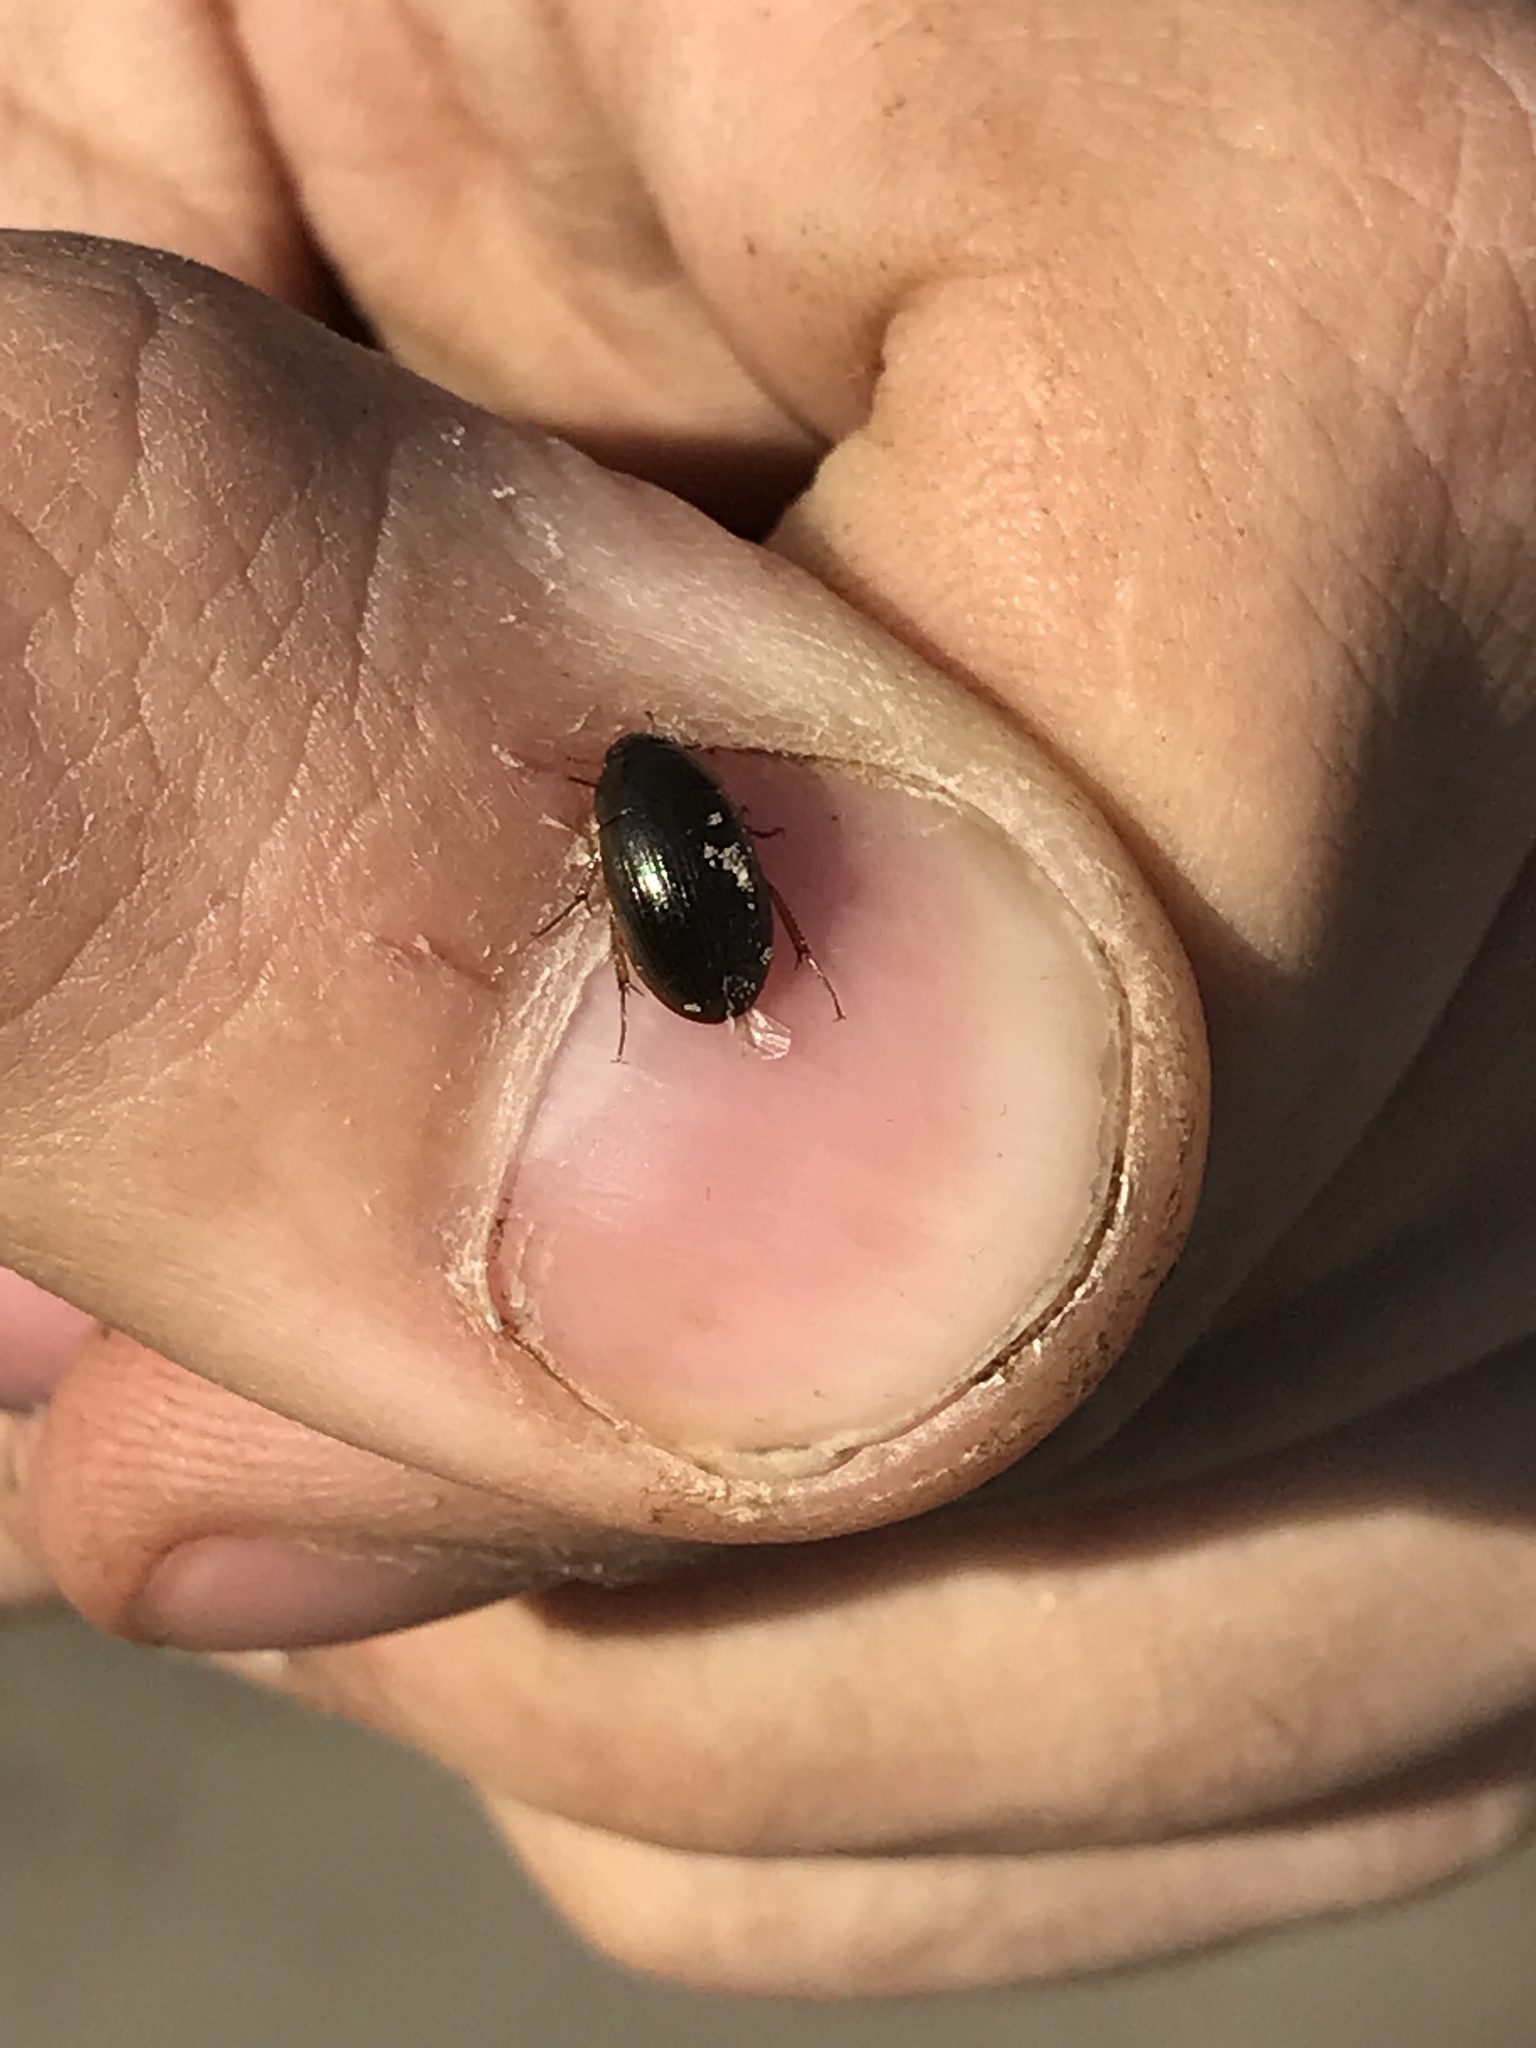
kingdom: Animalia
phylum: Arthropoda
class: Insecta
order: Coleoptera
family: Hydrophilidae
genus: Hydrobius
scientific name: Hydrobius
